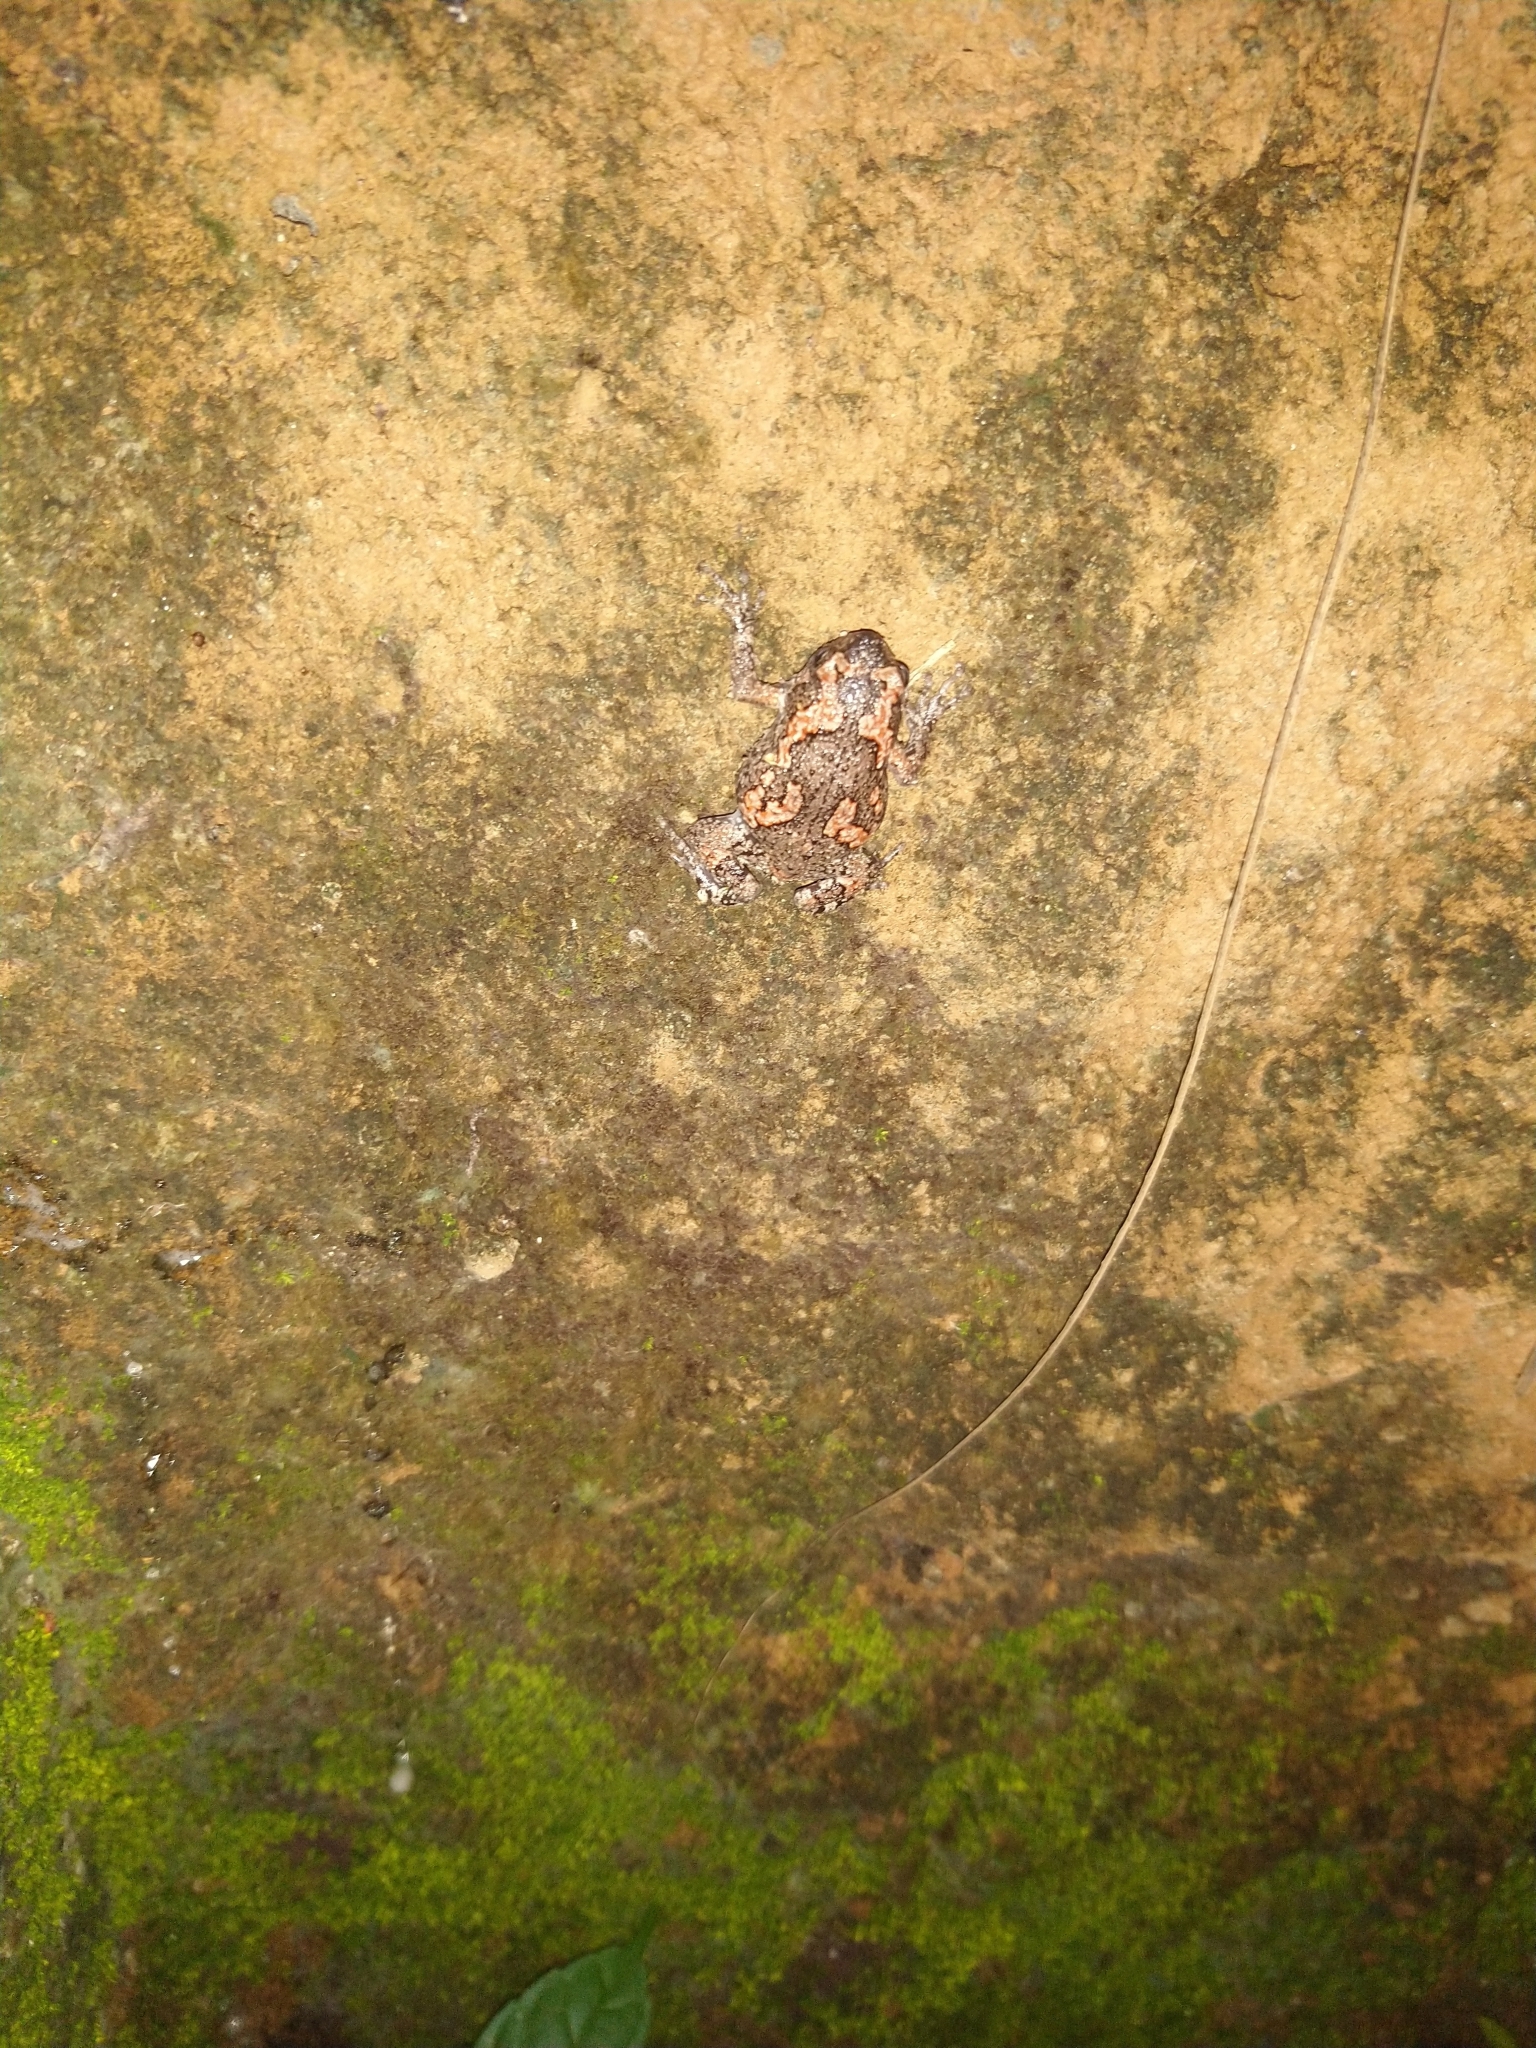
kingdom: Animalia
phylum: Chordata
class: Amphibia
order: Anura
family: Microhylidae
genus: Uperodon
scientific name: Uperodon taprobanicus
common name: Ceylon kaloula
